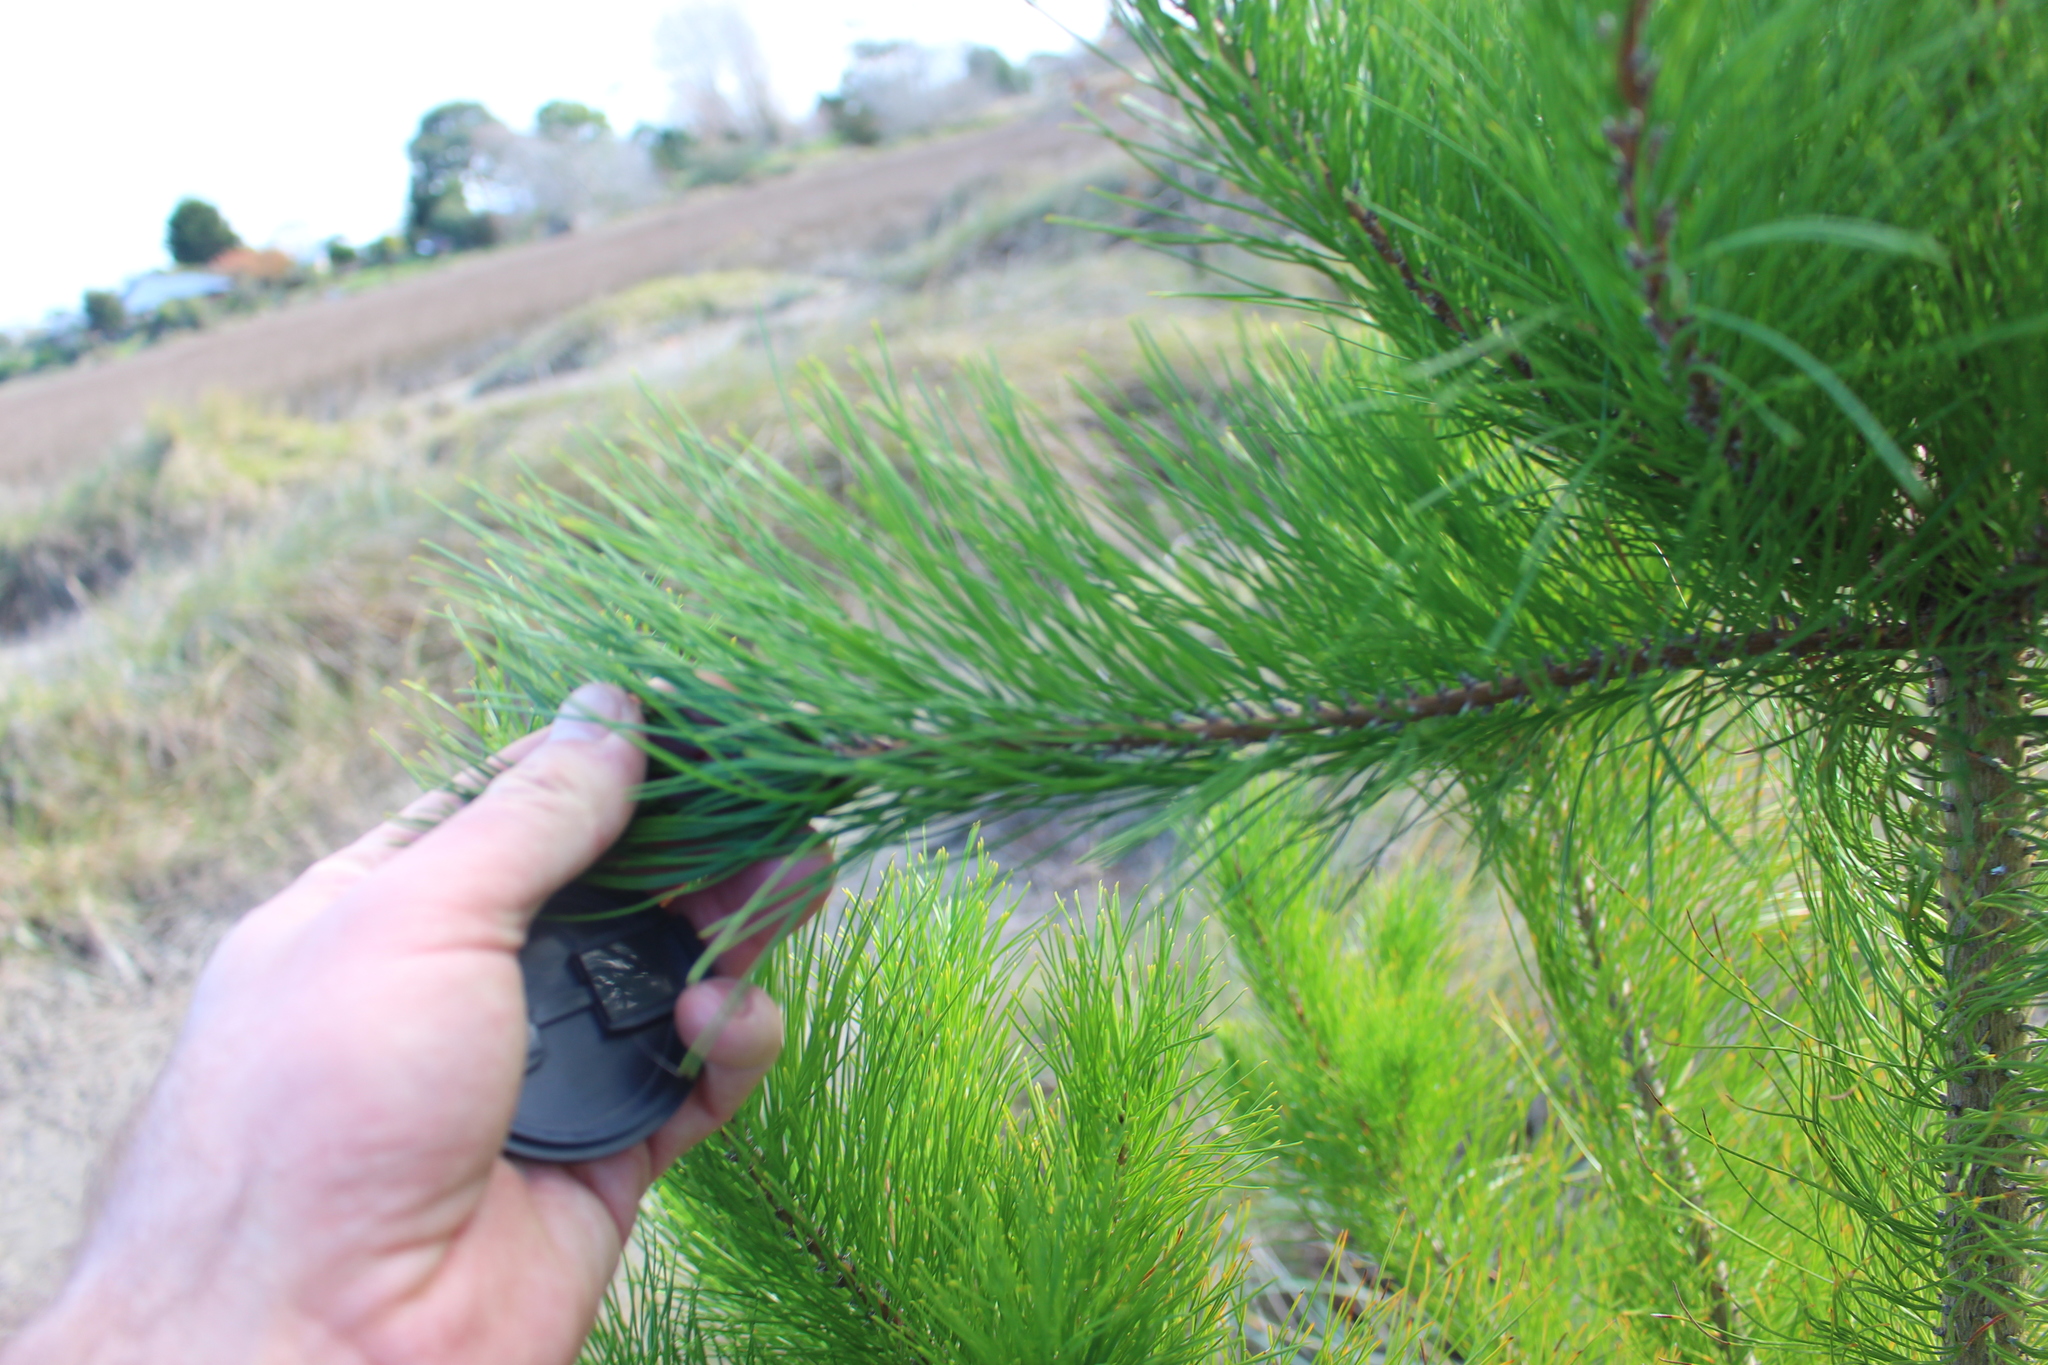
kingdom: Plantae
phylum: Tracheophyta
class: Pinopsida
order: Pinales
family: Pinaceae
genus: Pinus
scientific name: Pinus radiata
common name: Monterey pine
